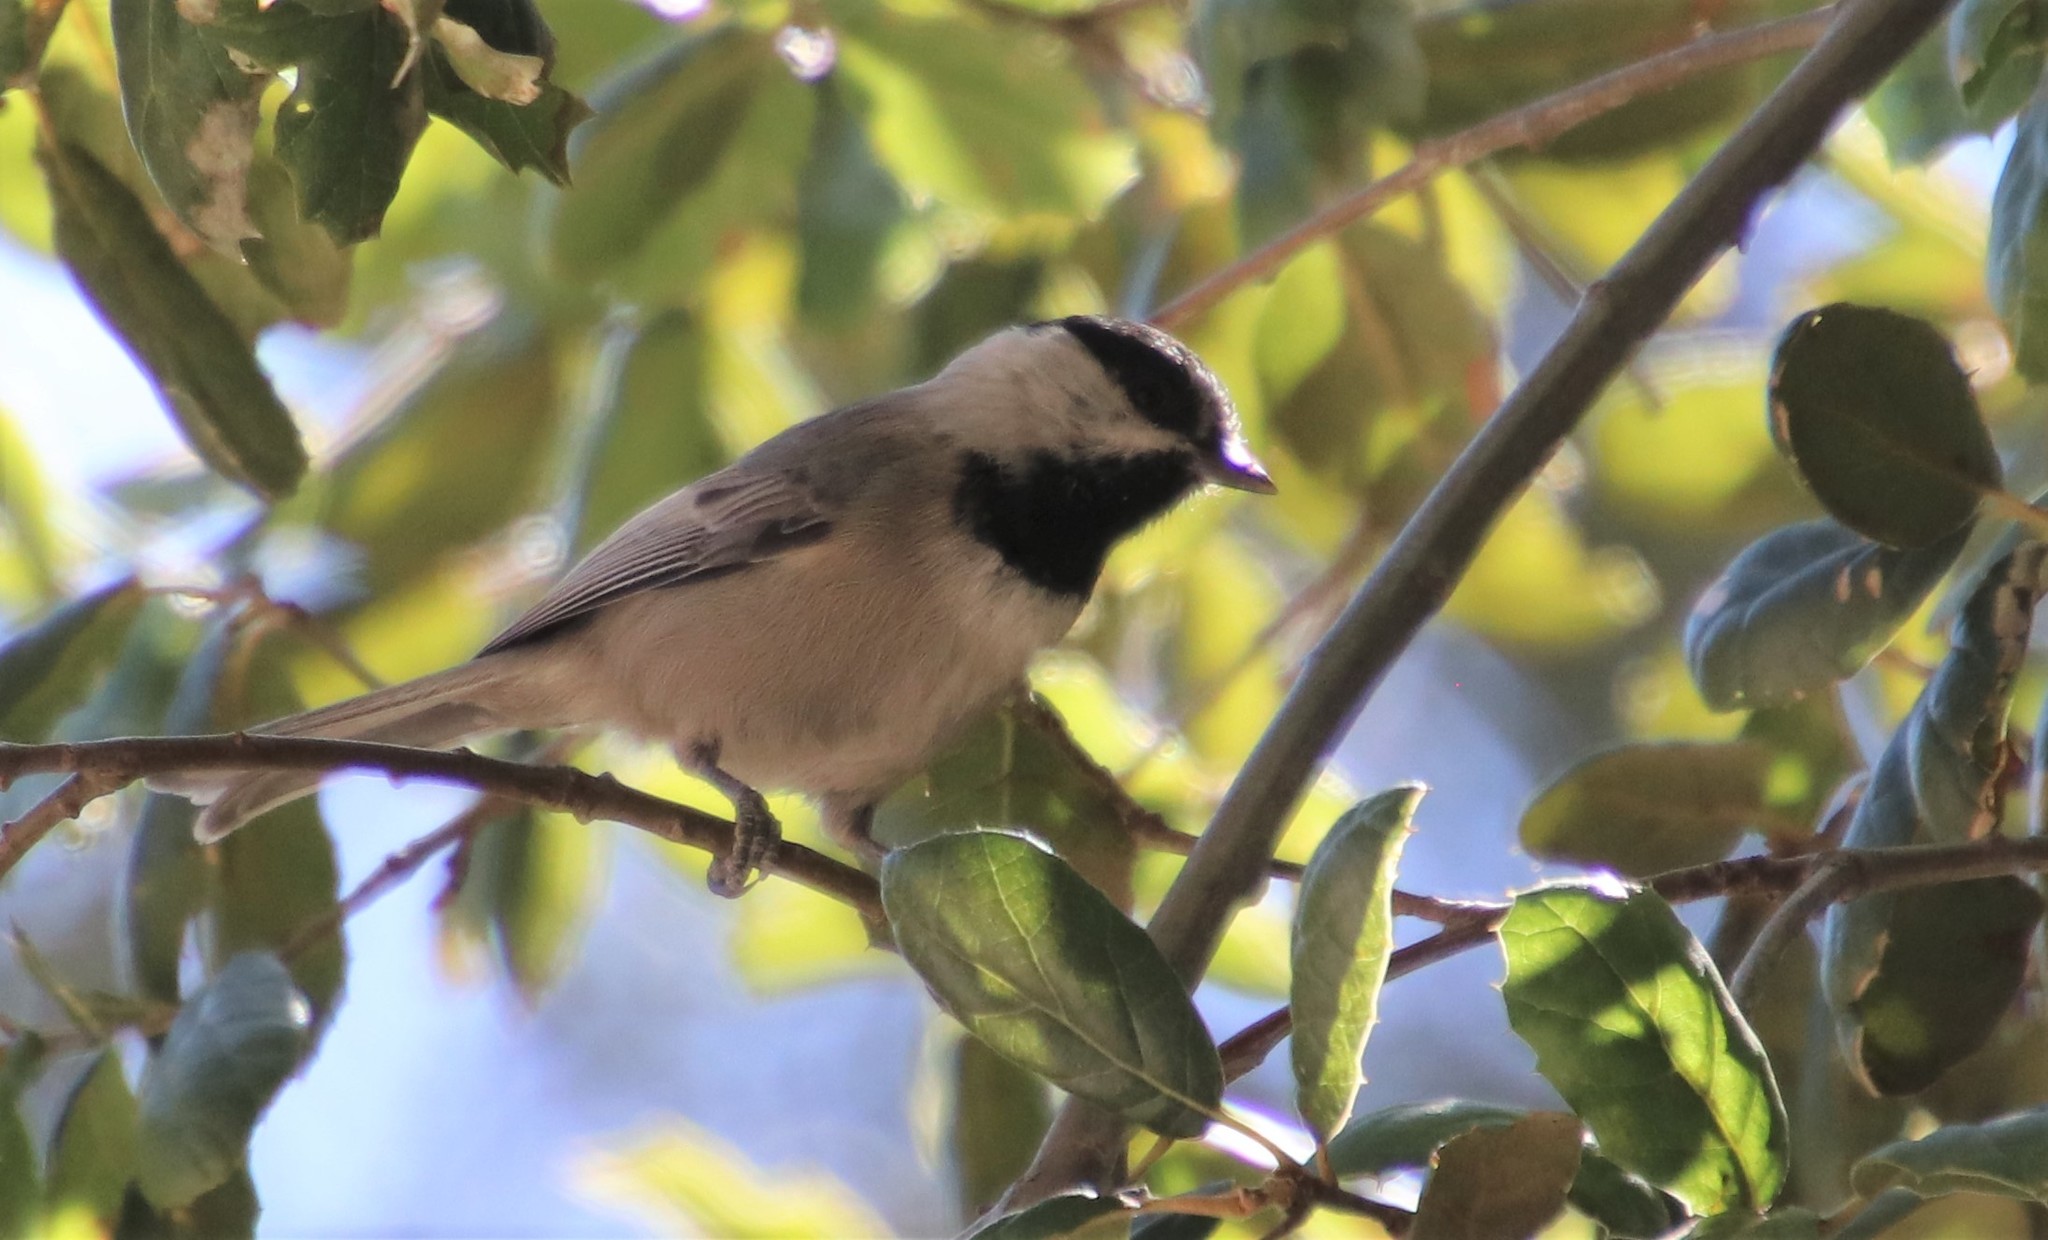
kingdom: Animalia
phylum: Chordata
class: Aves
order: Passeriformes
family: Paridae
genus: Poecile
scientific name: Poecile gambeli
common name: Mountain chickadee
